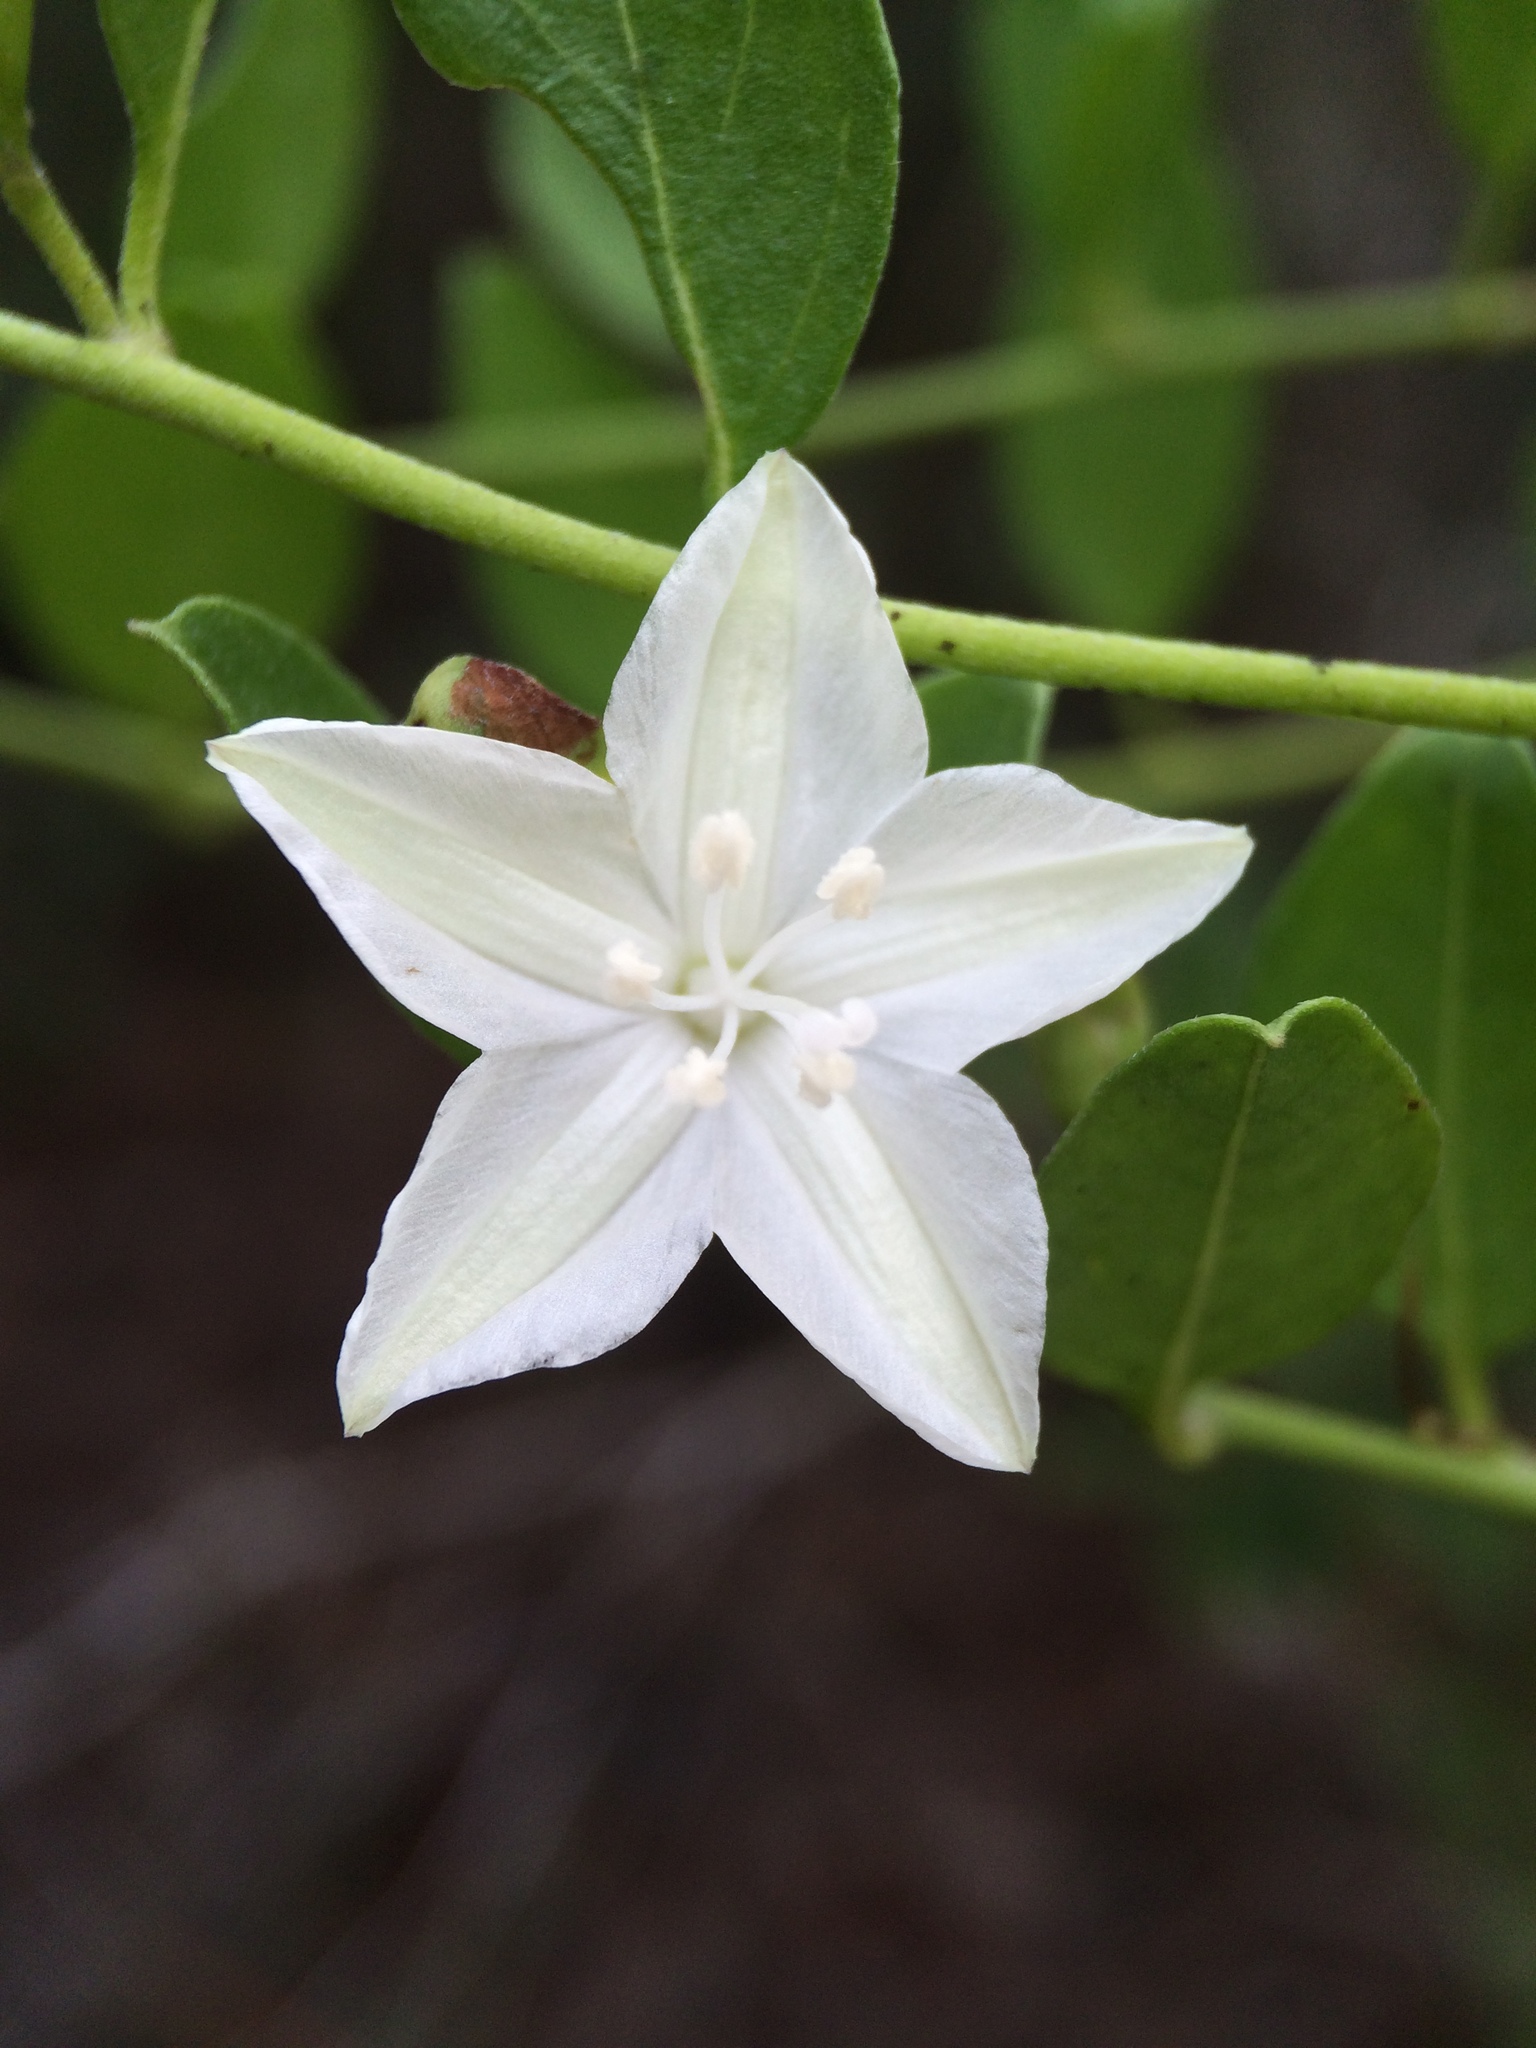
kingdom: Plantae
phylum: Tracheophyta
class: Magnoliopsida
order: Solanales
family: Convolvulaceae
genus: Jacquemontia
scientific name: Jacquemontia curtissii
